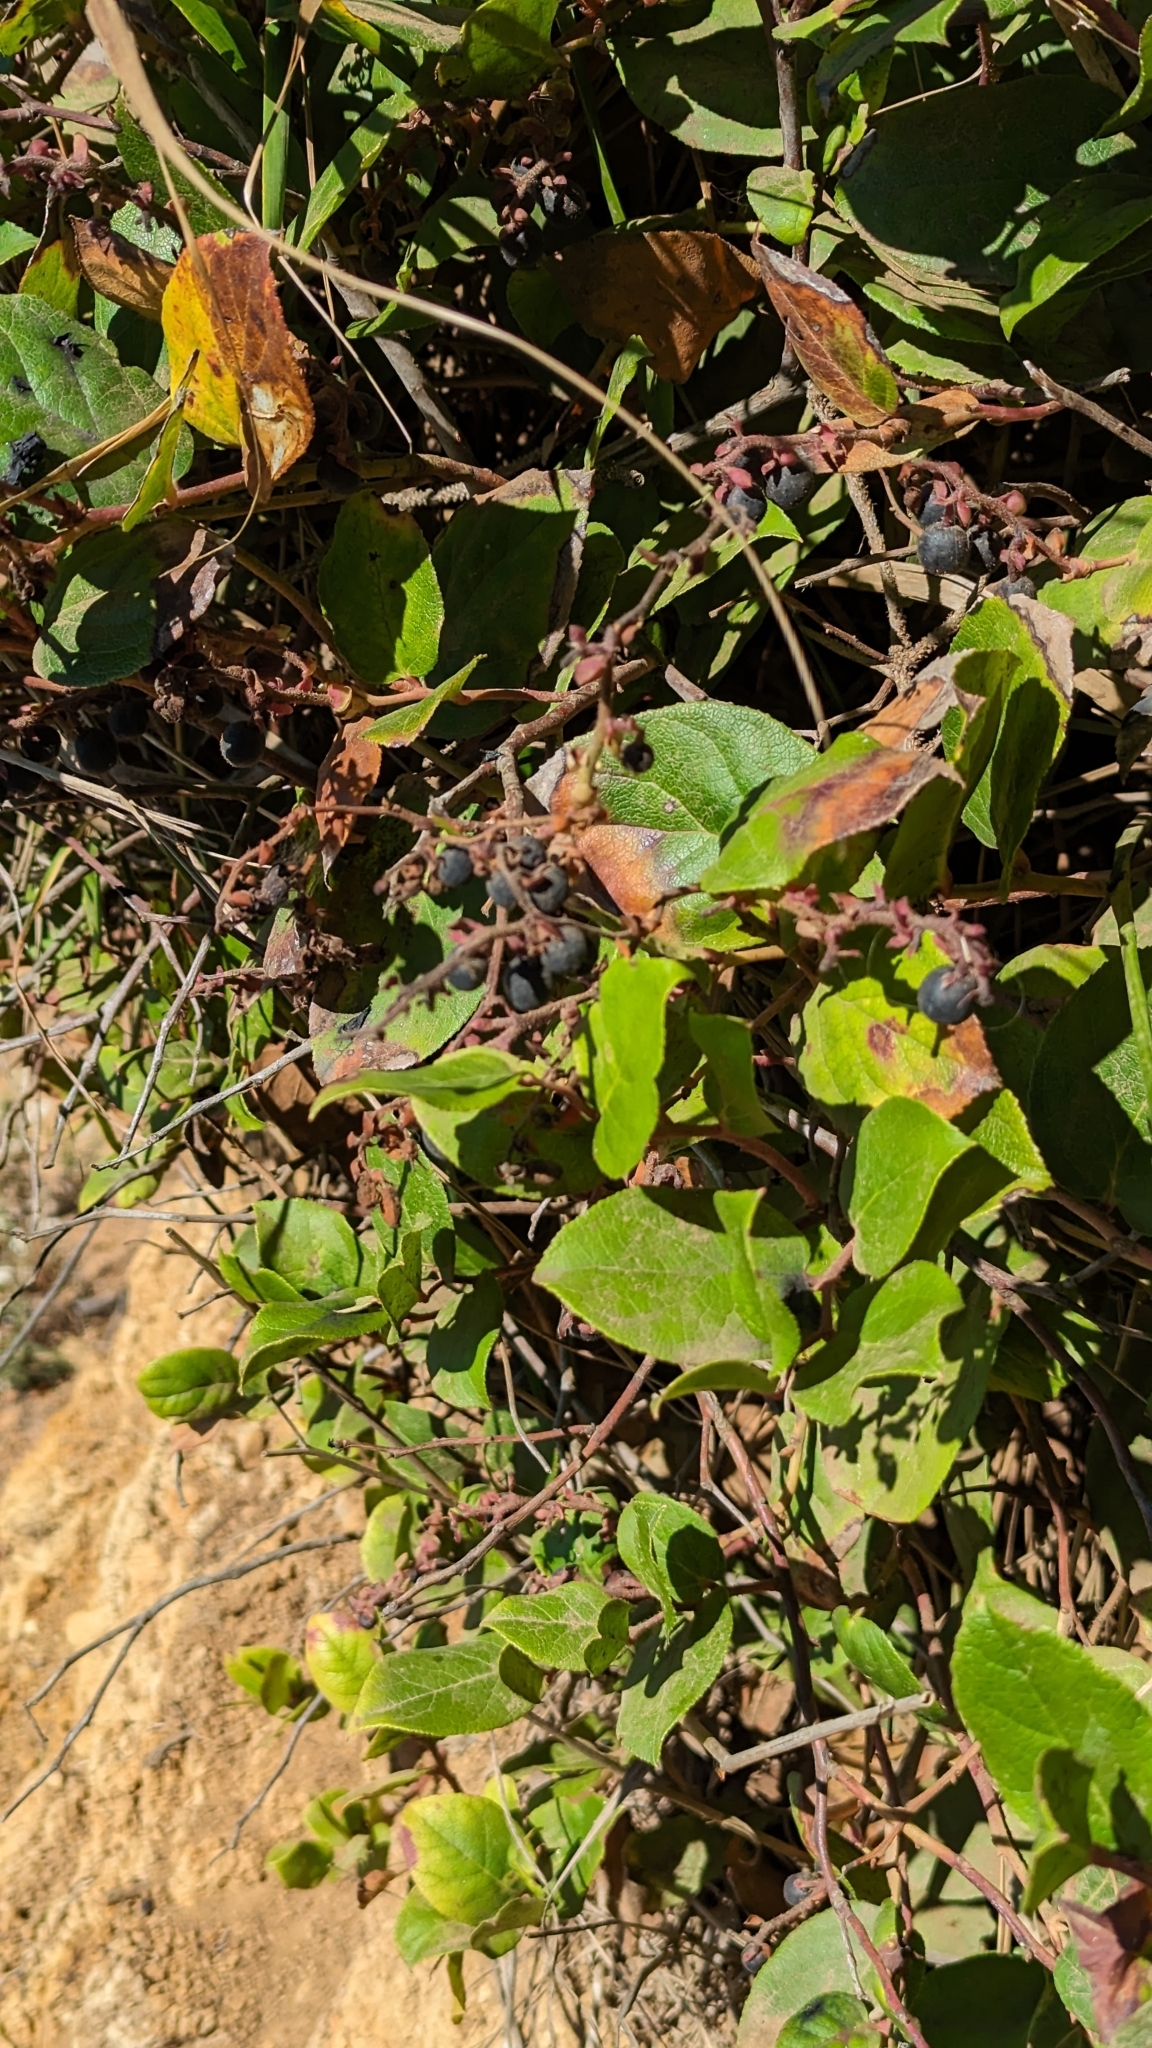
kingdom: Plantae
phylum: Tracheophyta
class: Magnoliopsida
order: Ericales
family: Ericaceae
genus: Gaultheria
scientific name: Gaultheria shallon
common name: Shallon
